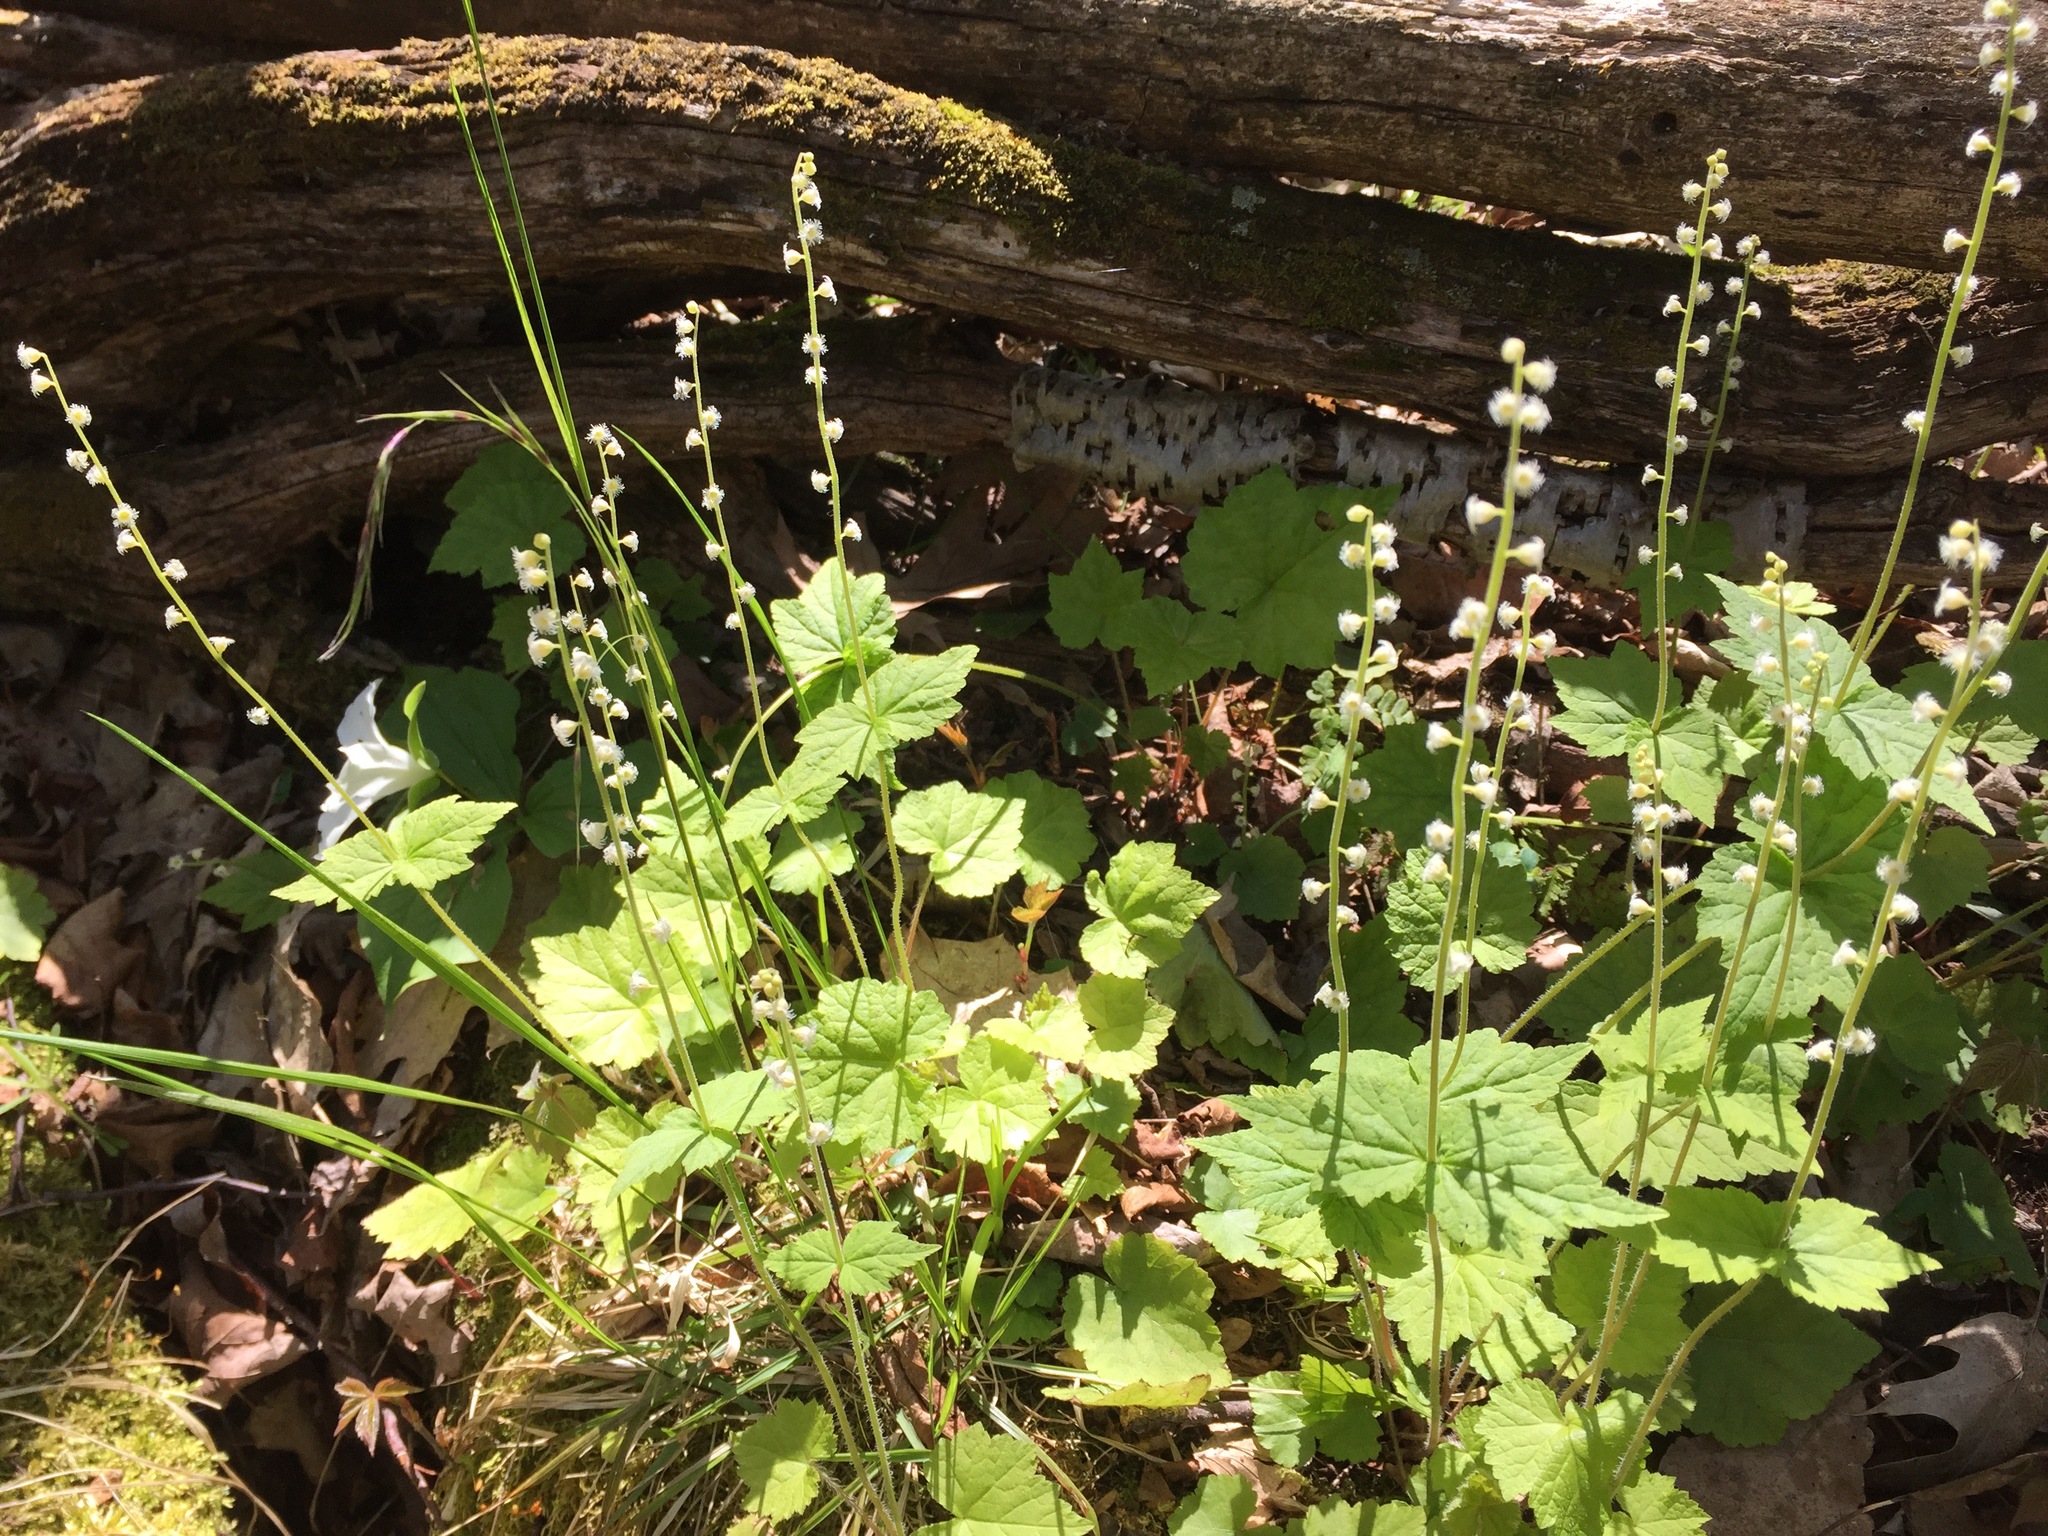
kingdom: Plantae
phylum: Tracheophyta
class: Magnoliopsida
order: Saxifragales
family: Saxifragaceae
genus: Mitella
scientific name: Mitella diphylla
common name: Coolwort
